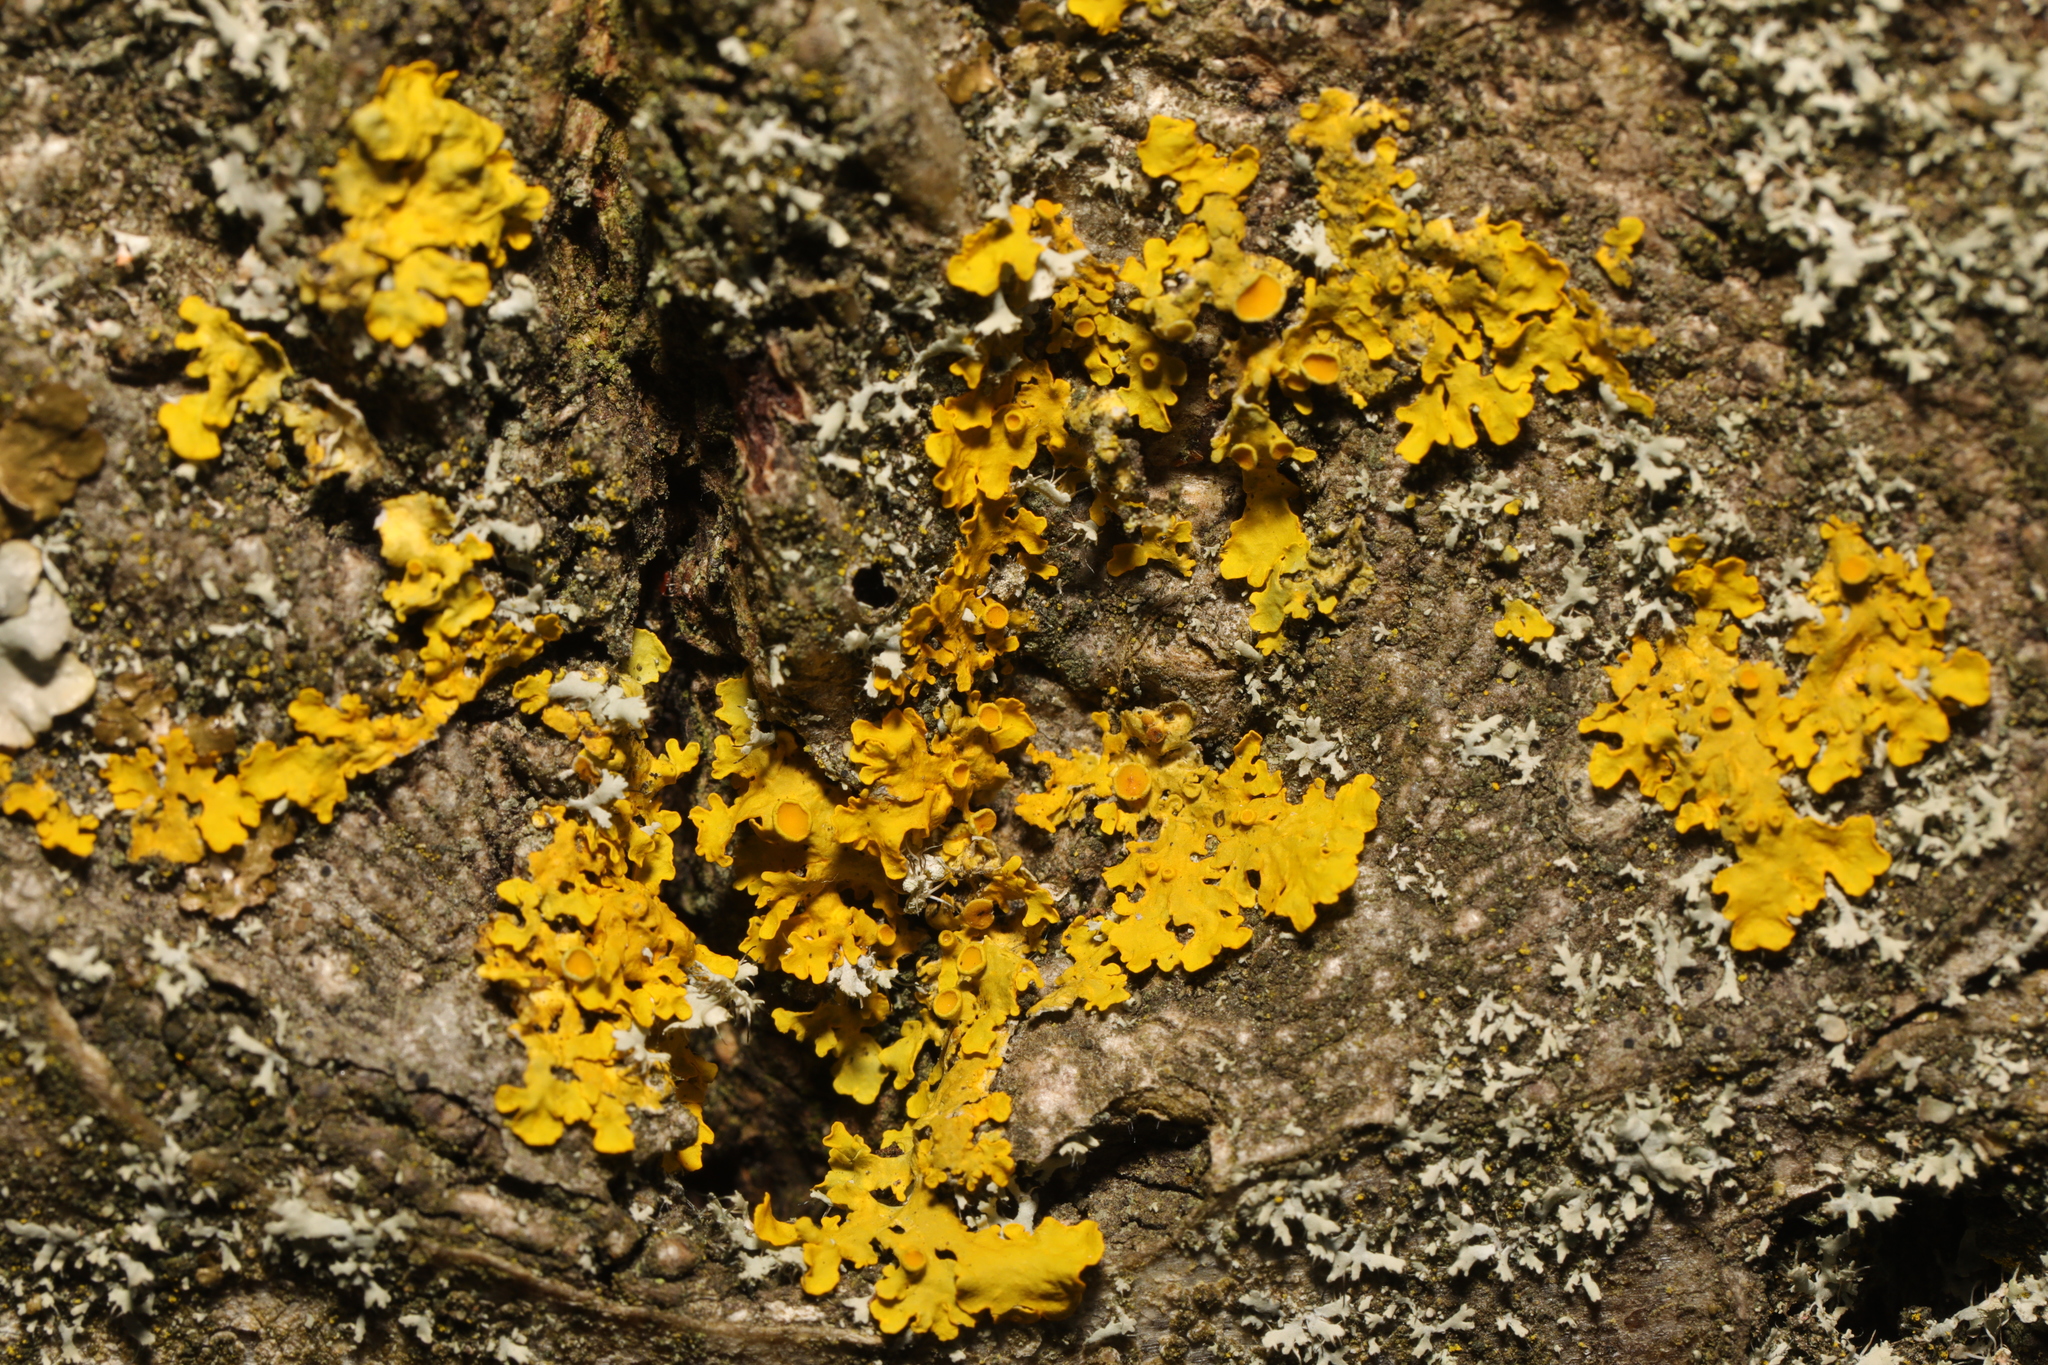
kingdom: Fungi
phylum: Ascomycota
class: Lecanoromycetes
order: Teloschistales
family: Teloschistaceae
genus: Xanthoria
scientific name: Xanthoria parietina
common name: Common orange lichen
